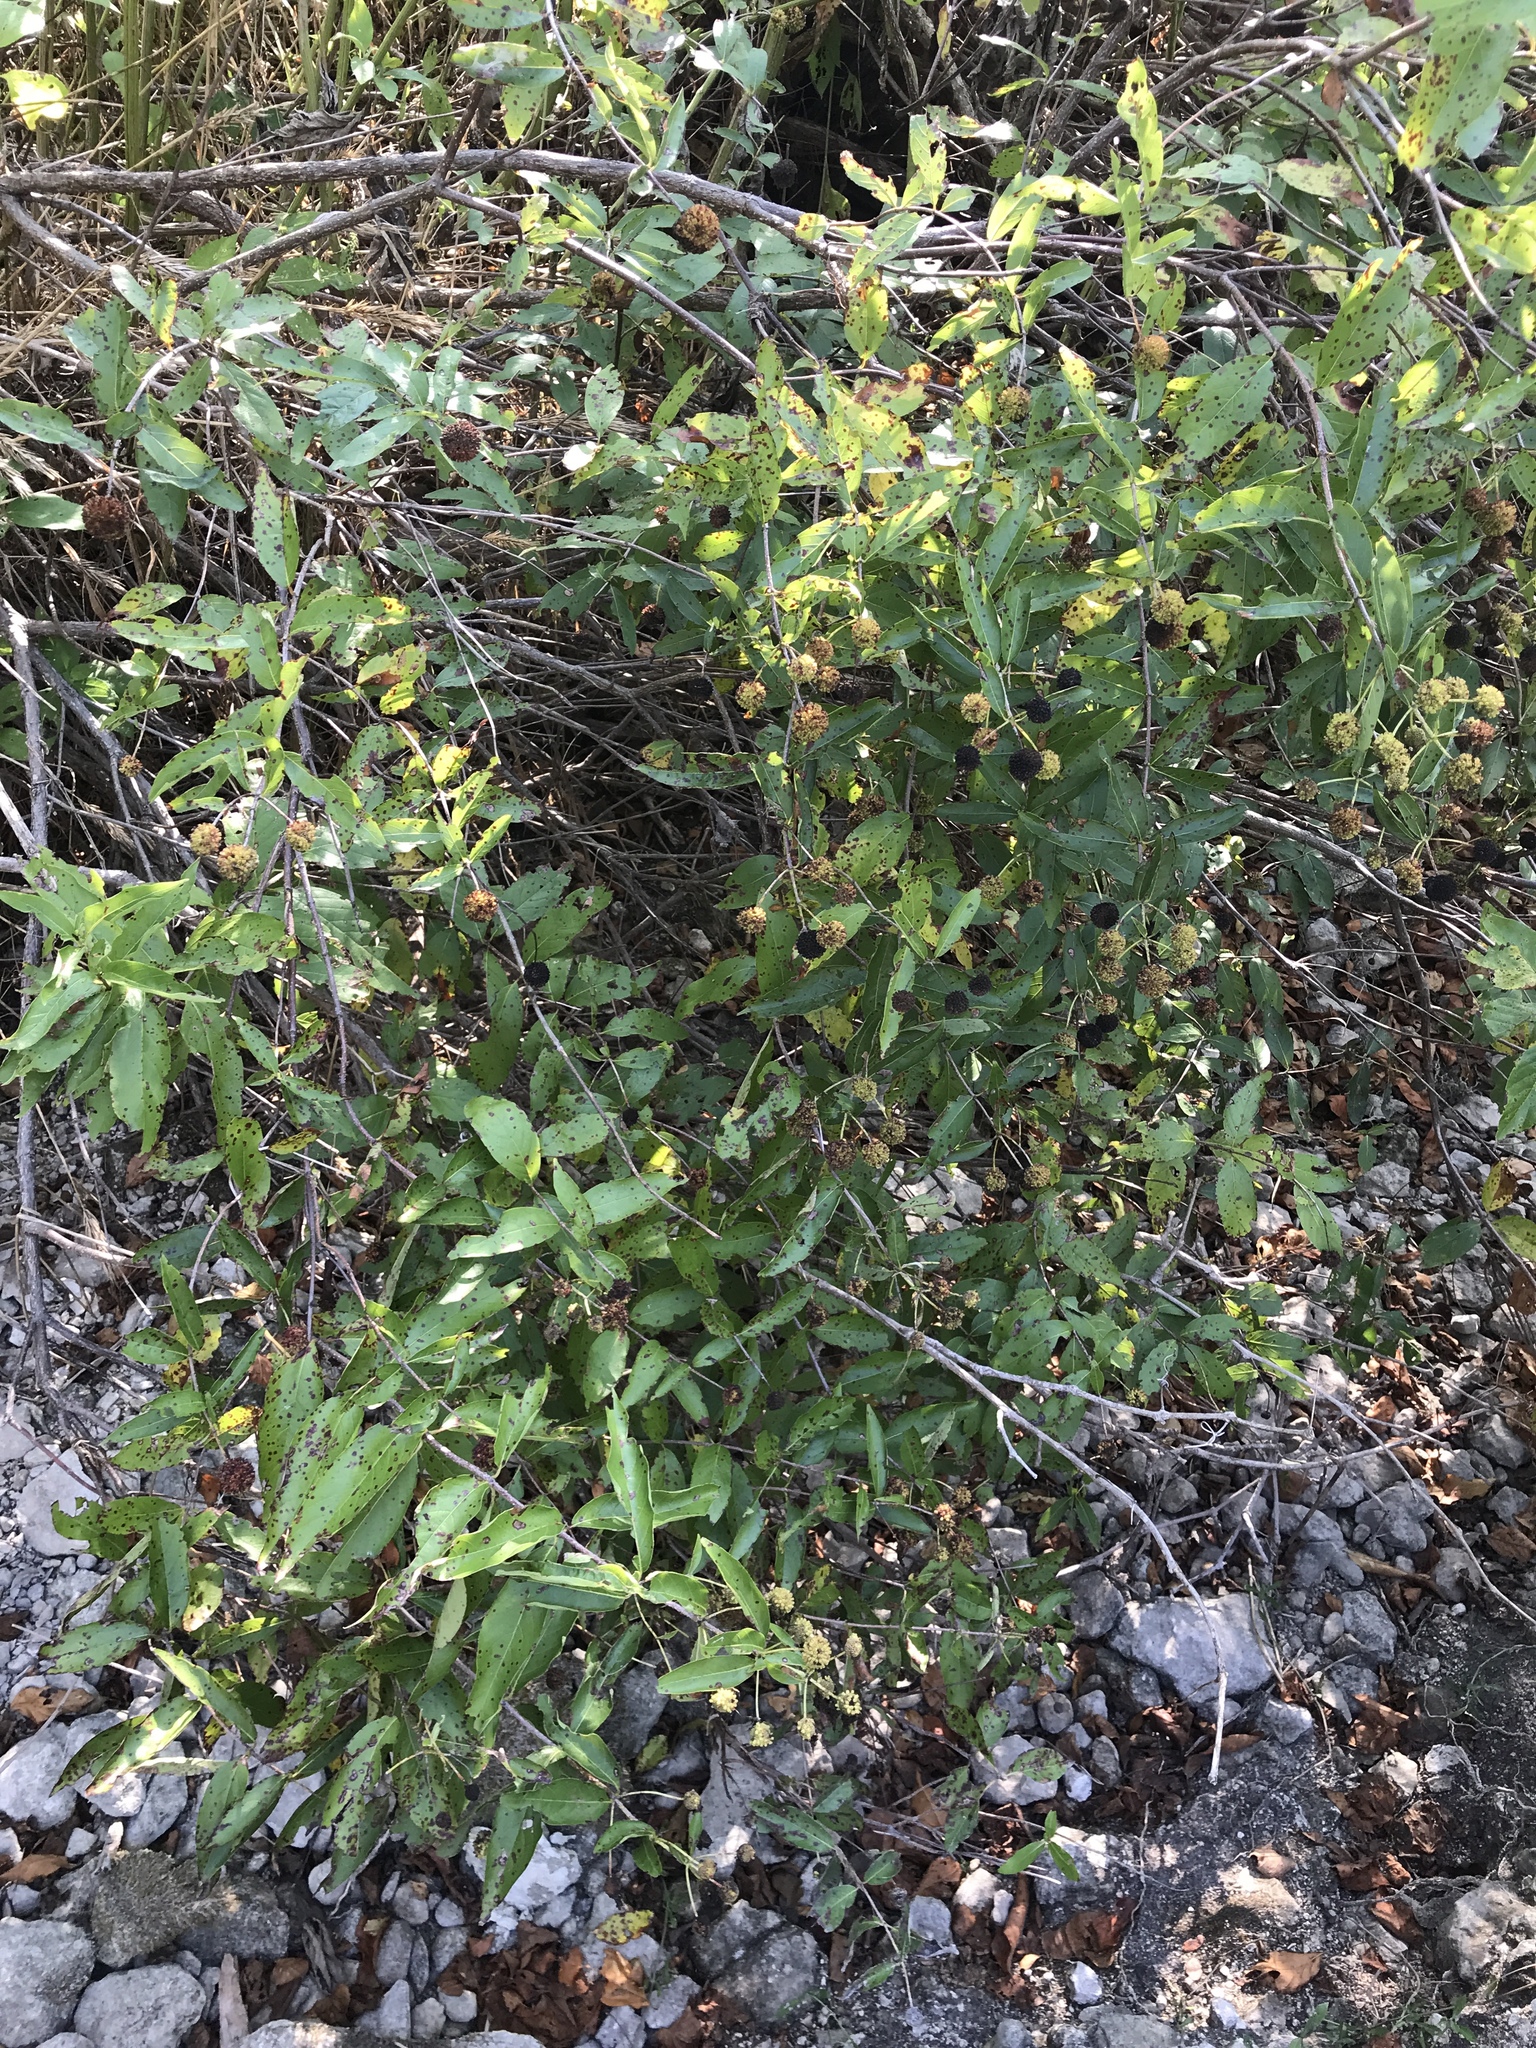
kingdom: Plantae
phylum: Tracheophyta
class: Magnoliopsida
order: Gentianales
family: Rubiaceae
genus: Cephalanthus
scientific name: Cephalanthus occidentalis
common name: Button-willow
